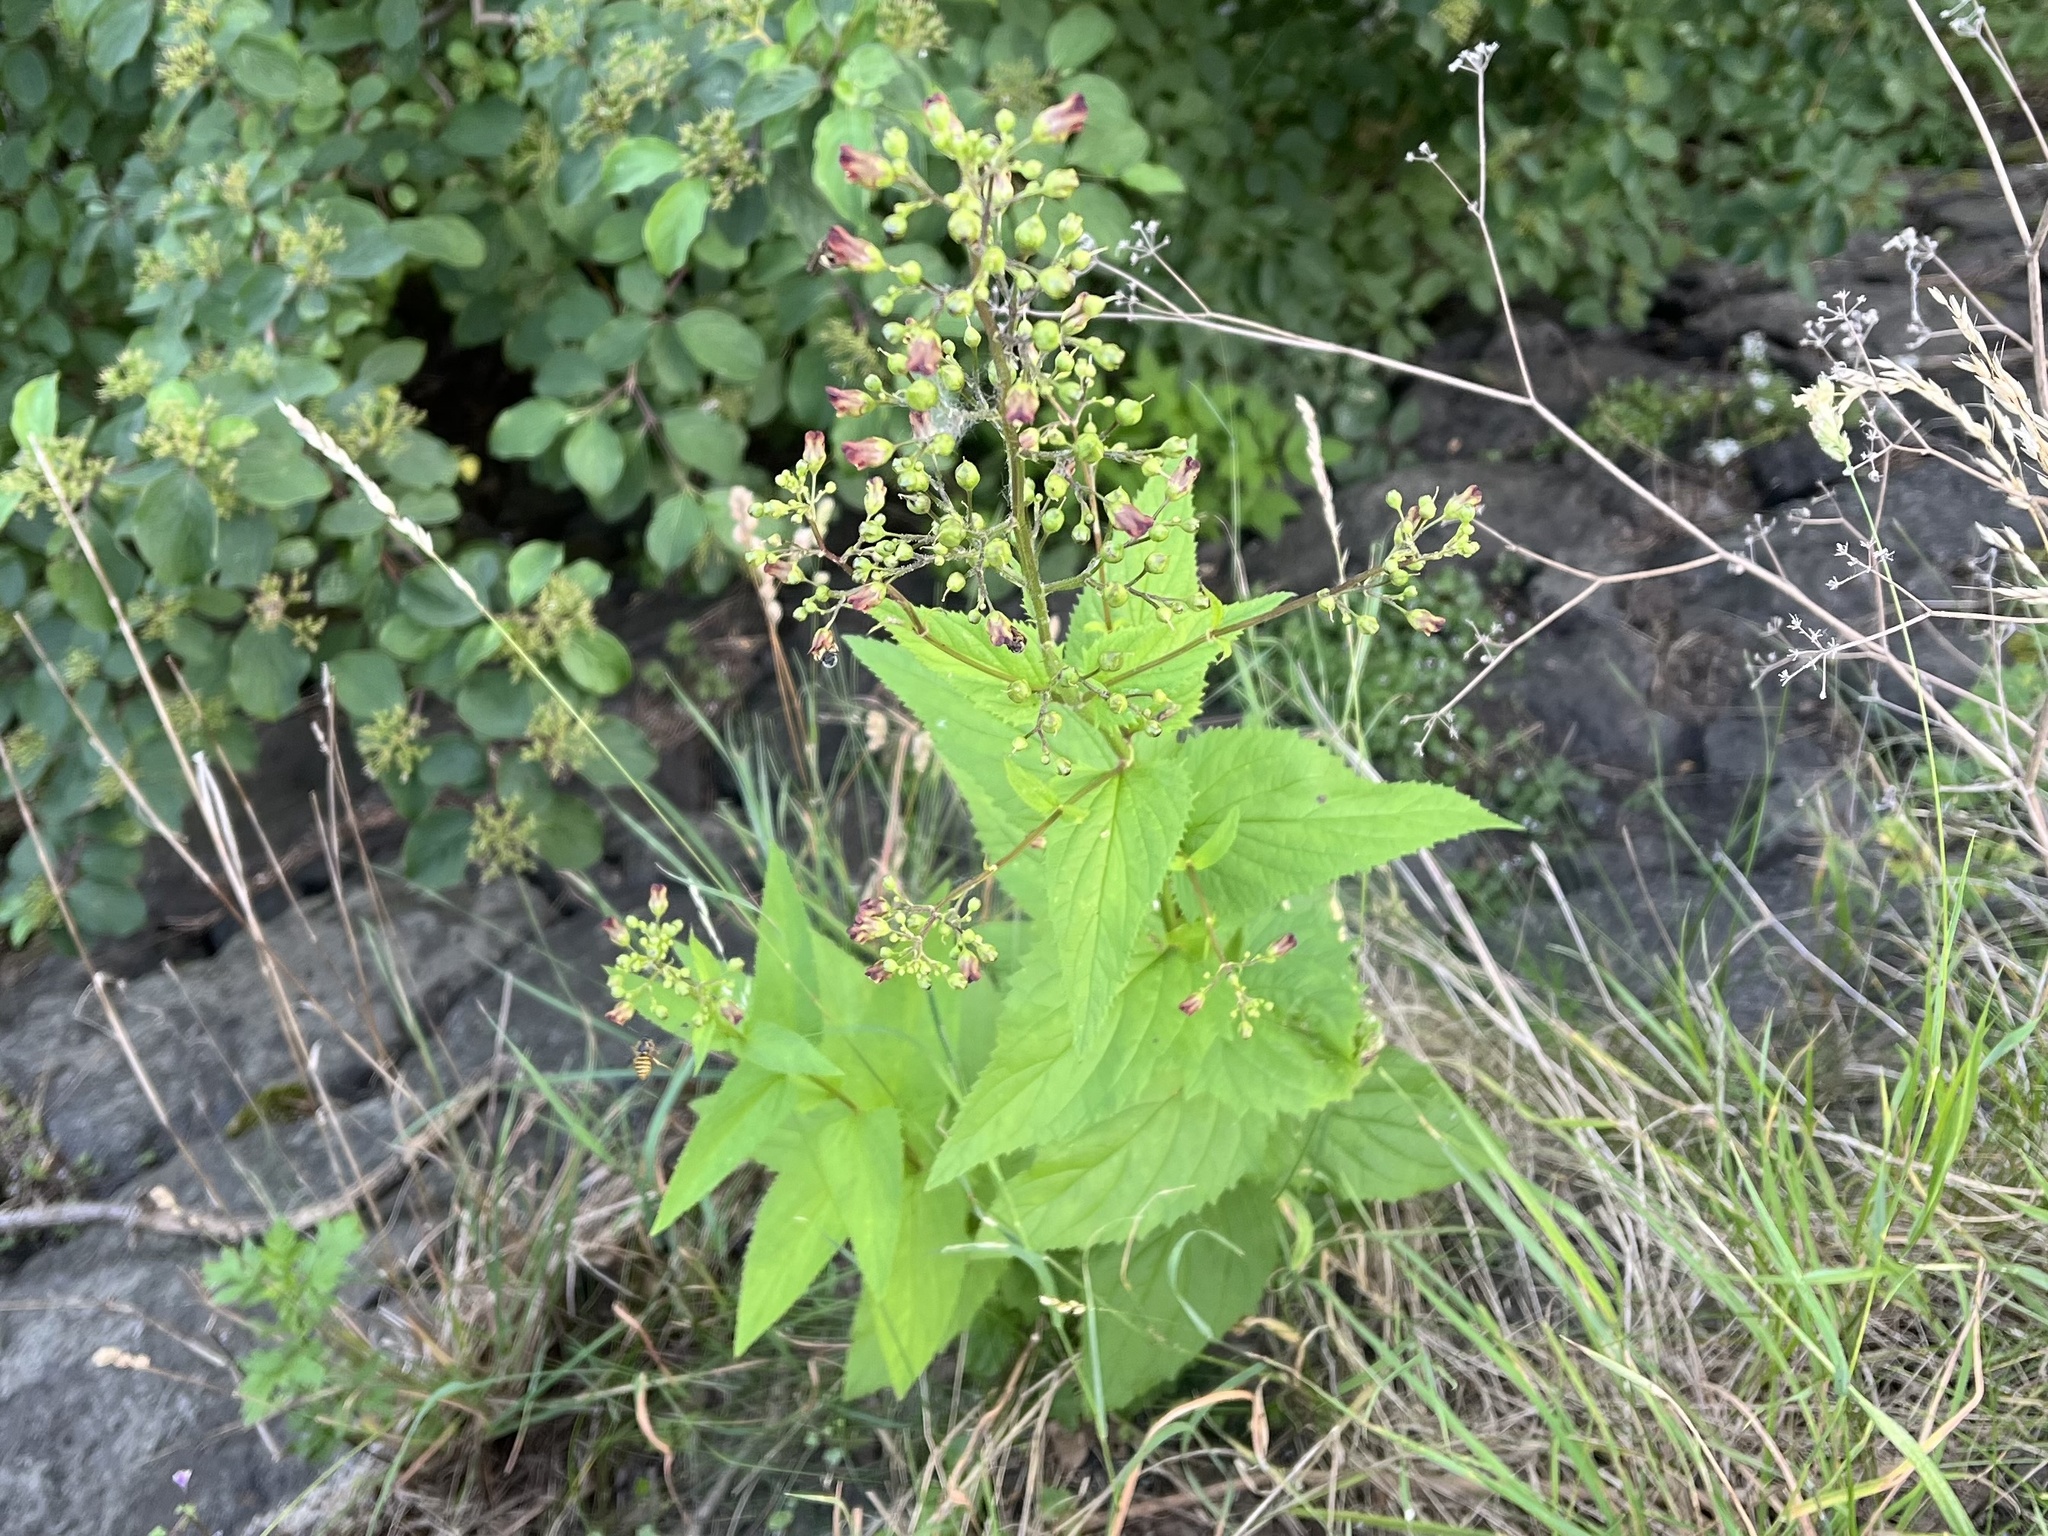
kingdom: Plantae
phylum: Tracheophyta
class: Magnoliopsida
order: Lamiales
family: Scrophulariaceae
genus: Scrophularia
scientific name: Scrophularia nodosa
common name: Common figwort
